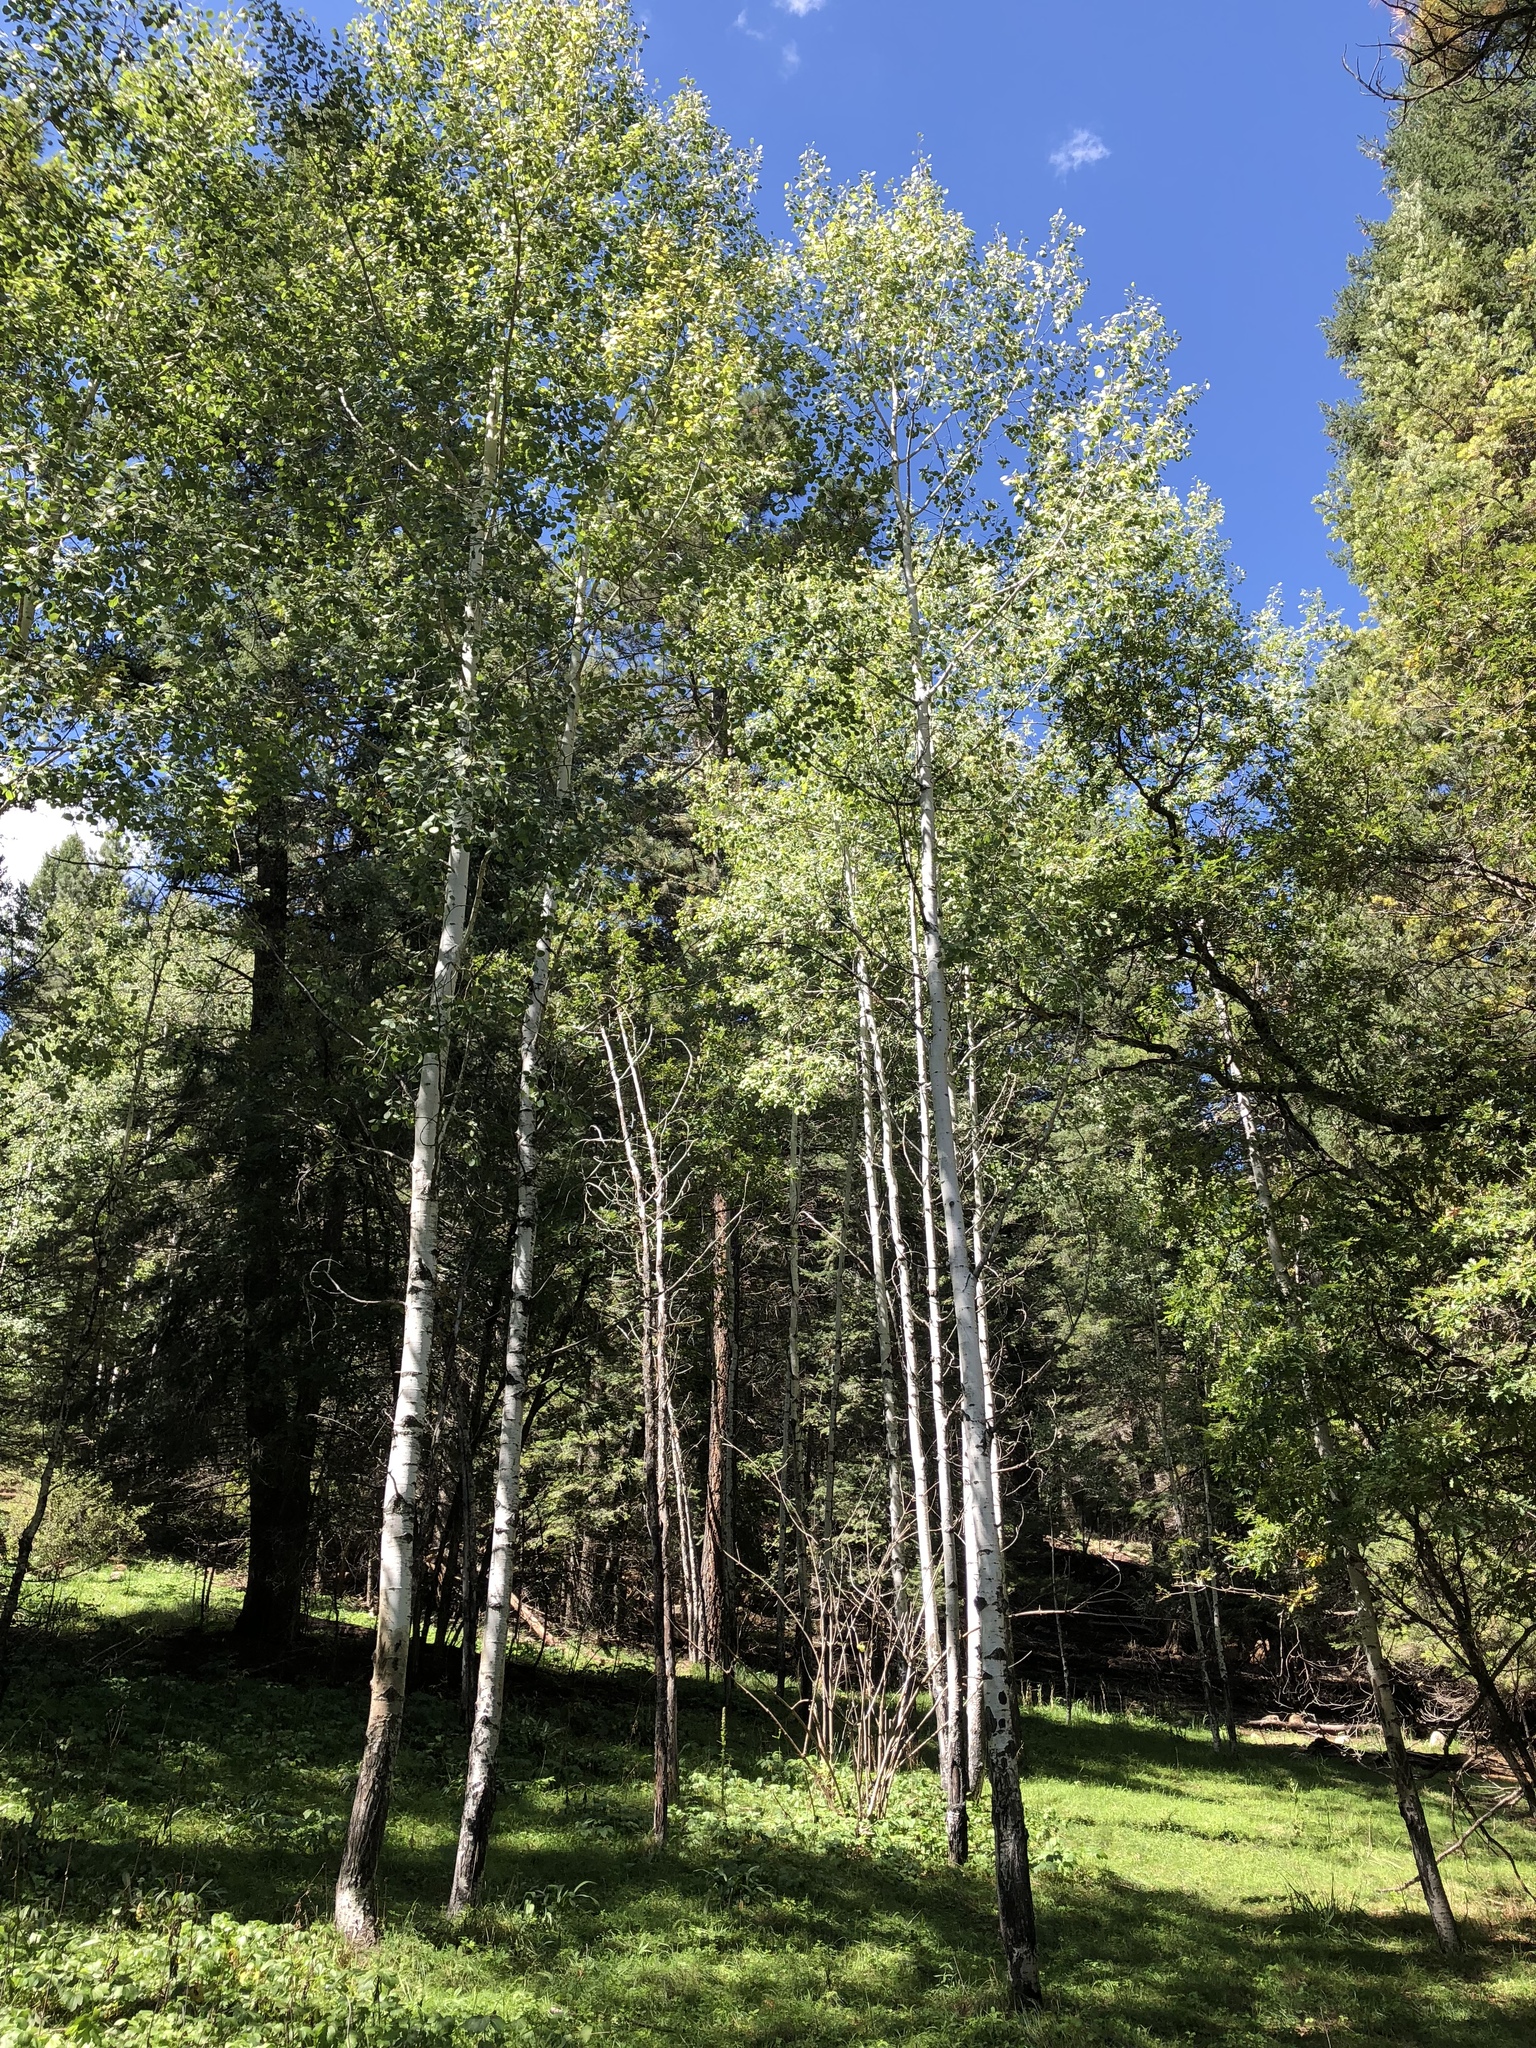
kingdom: Plantae
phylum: Tracheophyta
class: Magnoliopsida
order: Malpighiales
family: Salicaceae
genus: Populus
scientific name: Populus tremuloides
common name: Quaking aspen
